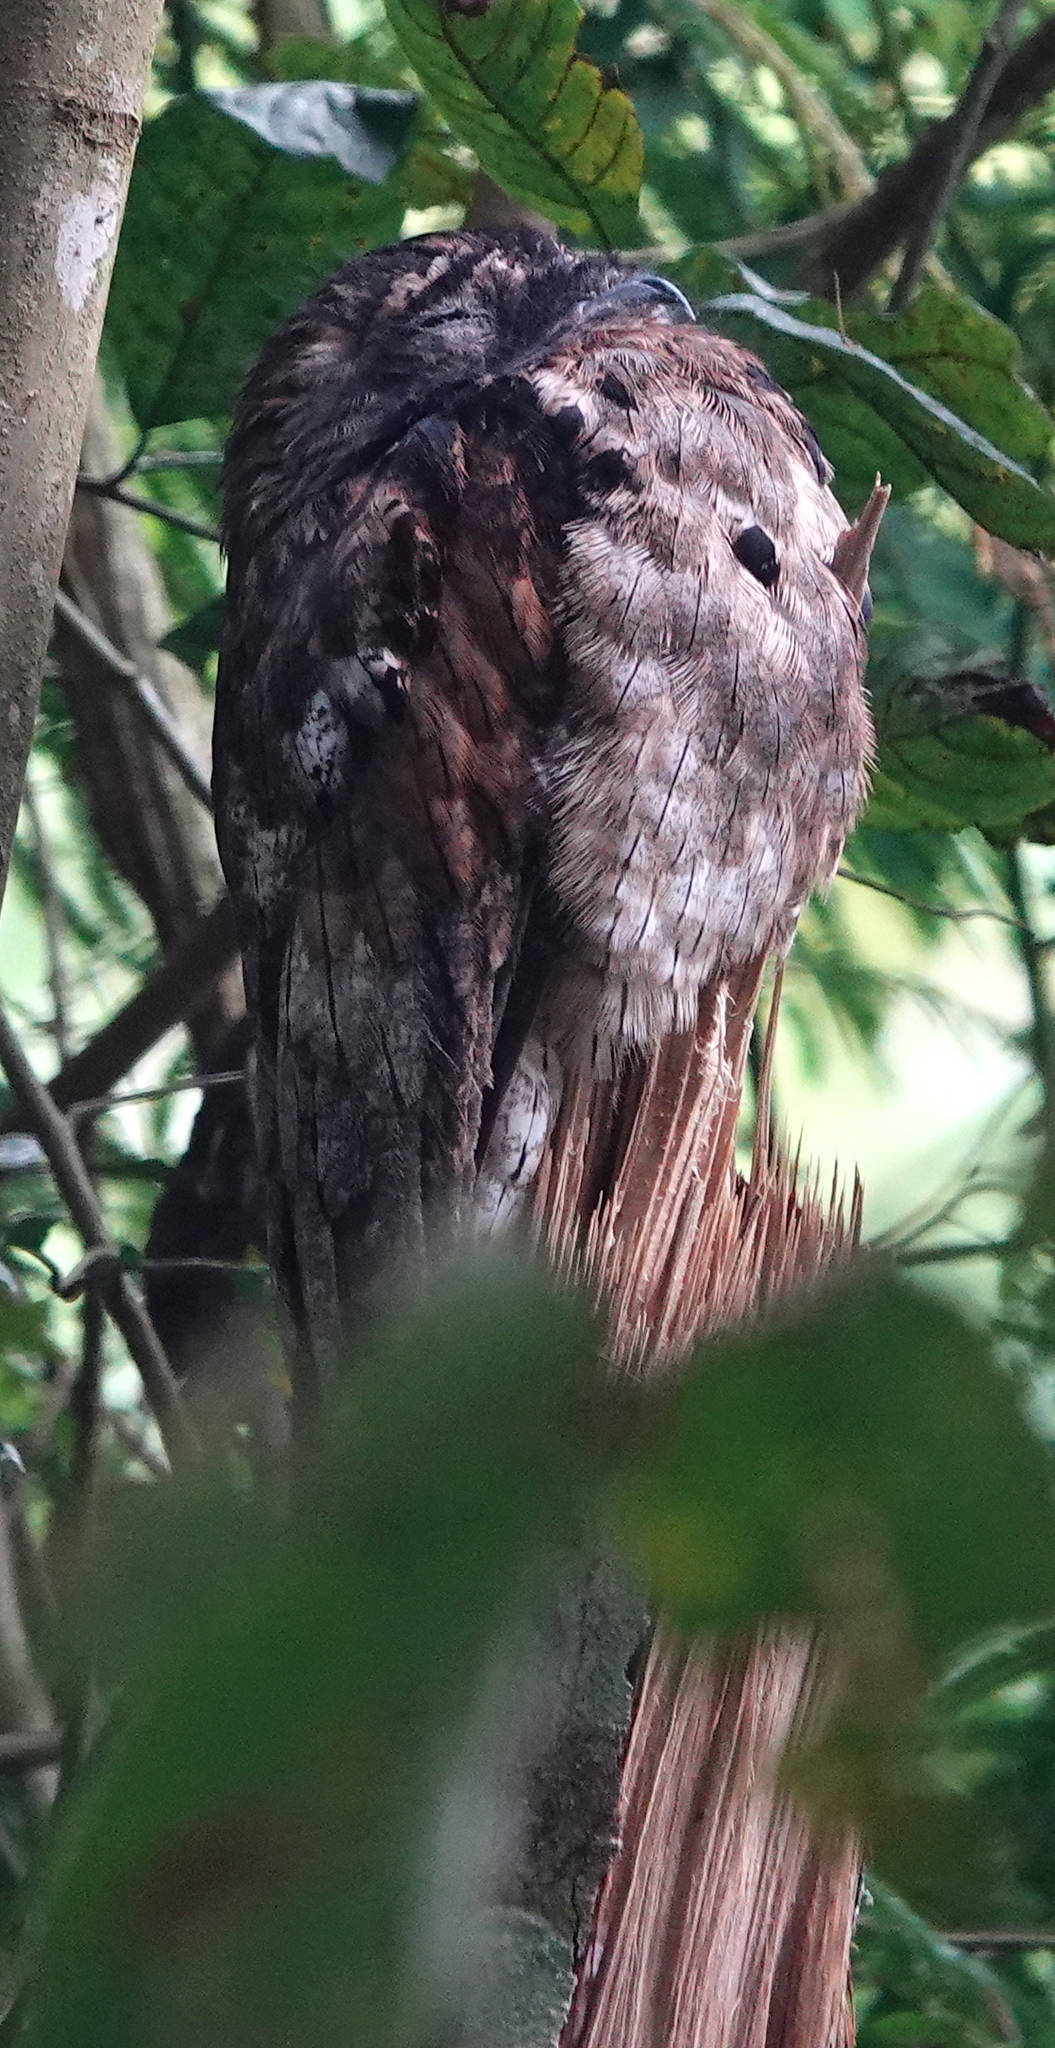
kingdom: Animalia
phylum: Chordata
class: Aves
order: Nyctibiiformes
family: Nyctibiidae
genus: Nyctibius
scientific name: Nyctibius griseus
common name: Common potoo
